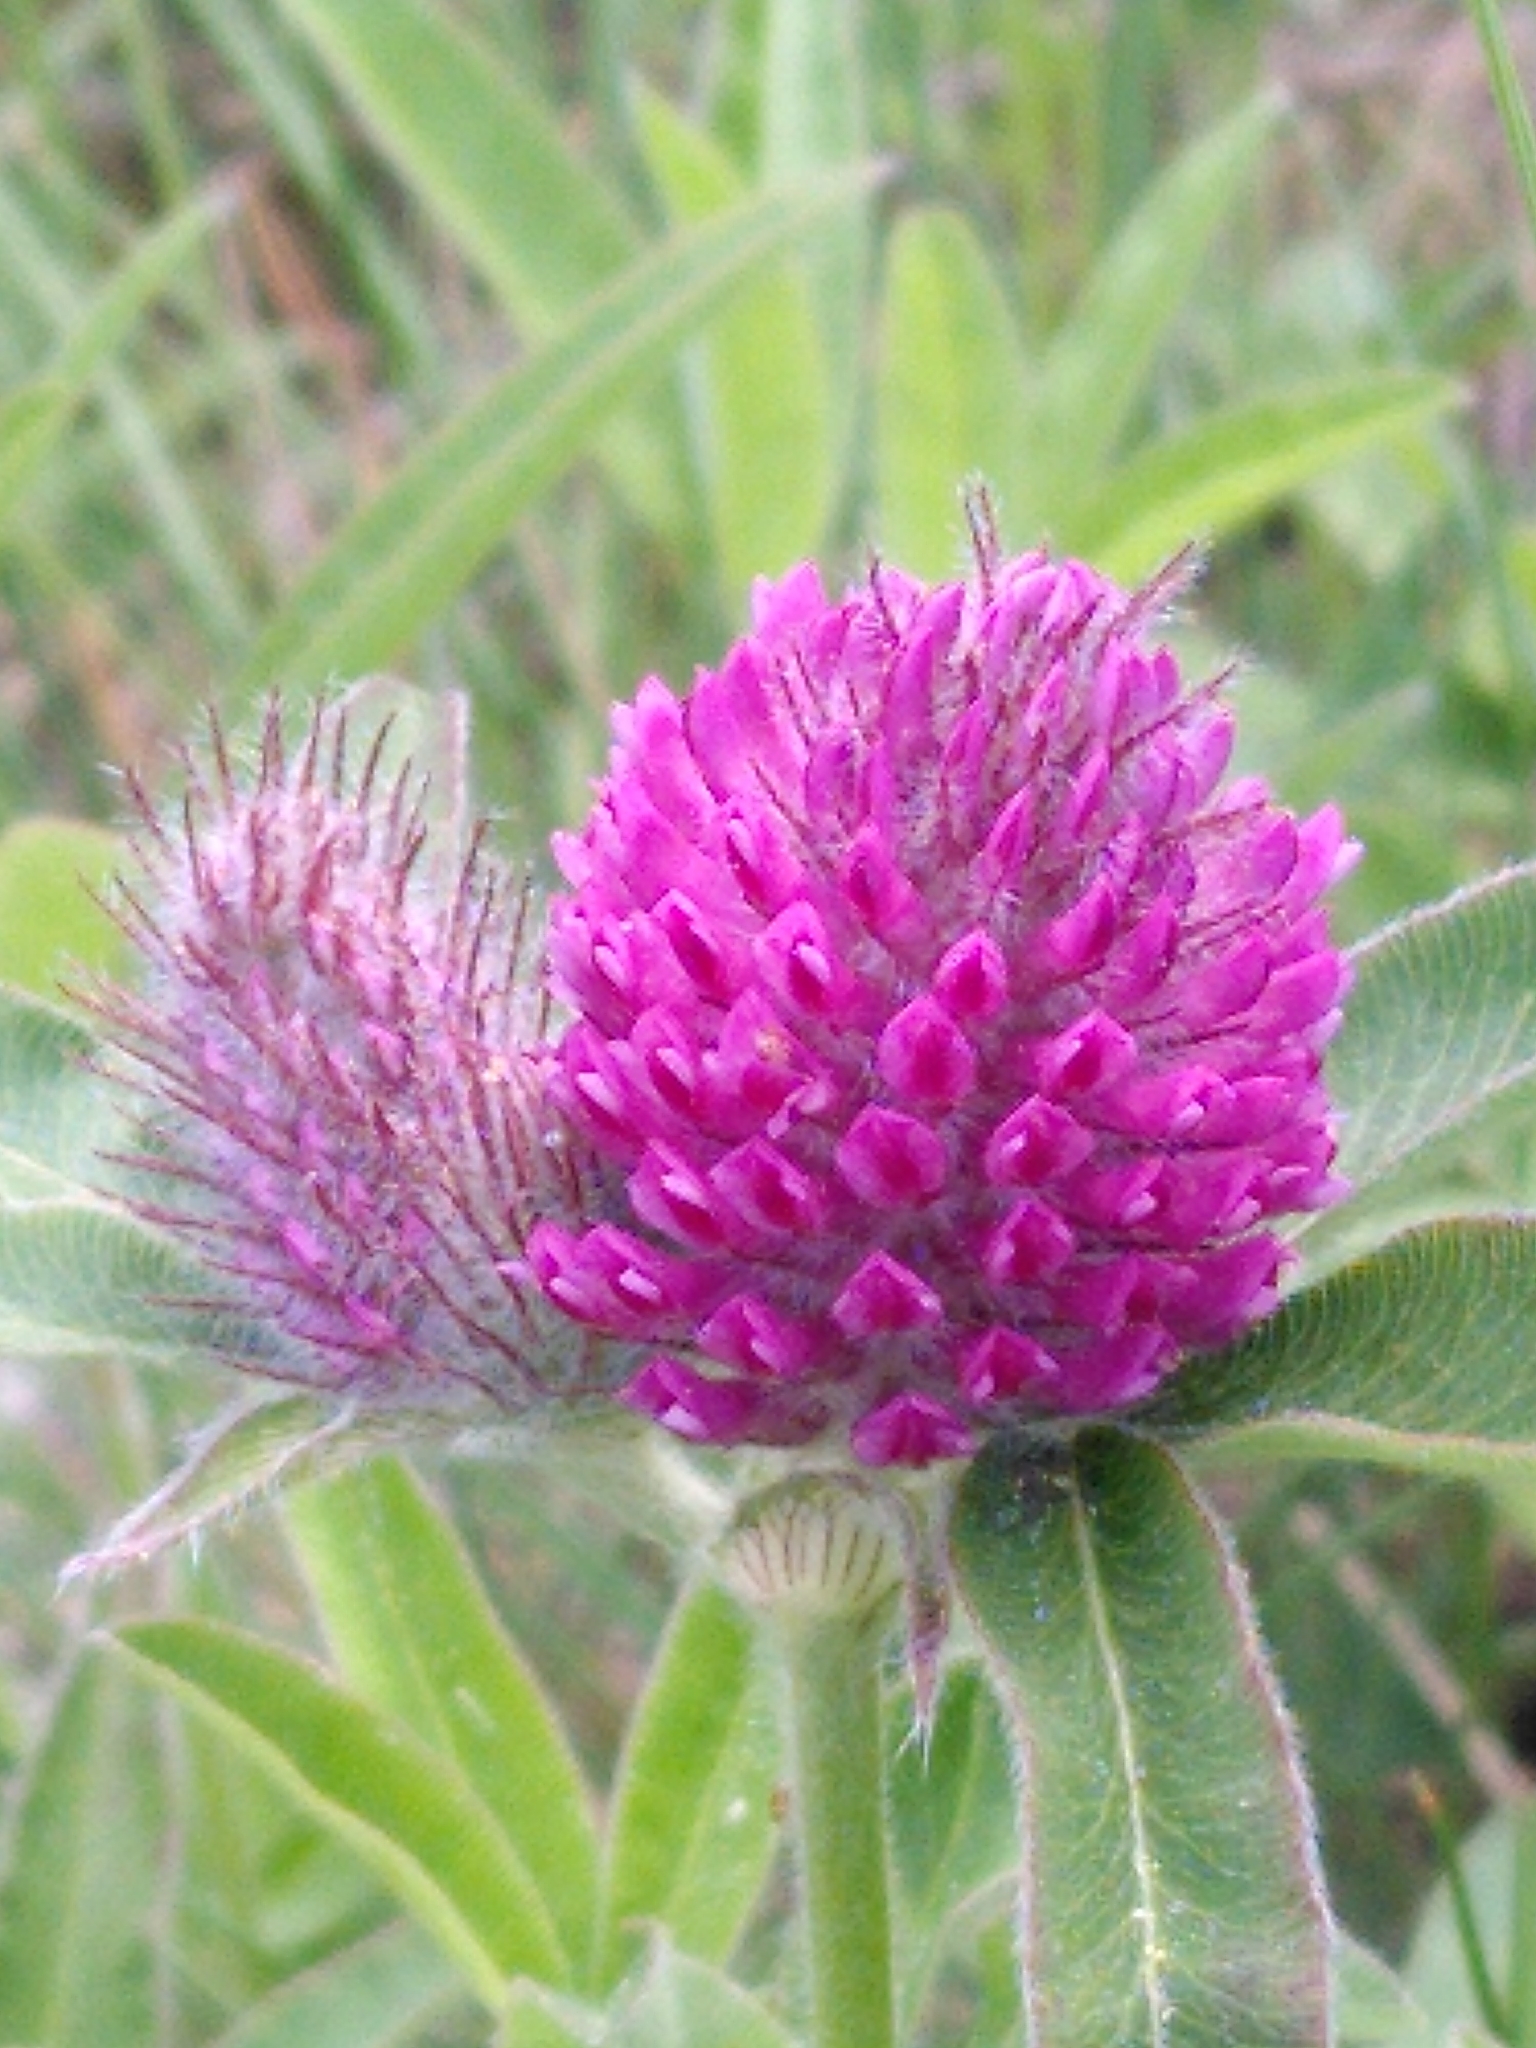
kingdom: Plantae
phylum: Tracheophyta
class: Magnoliopsida
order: Fabales
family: Fabaceae
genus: Trifolium
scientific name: Trifolium alpestre
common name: Owl-head clover
